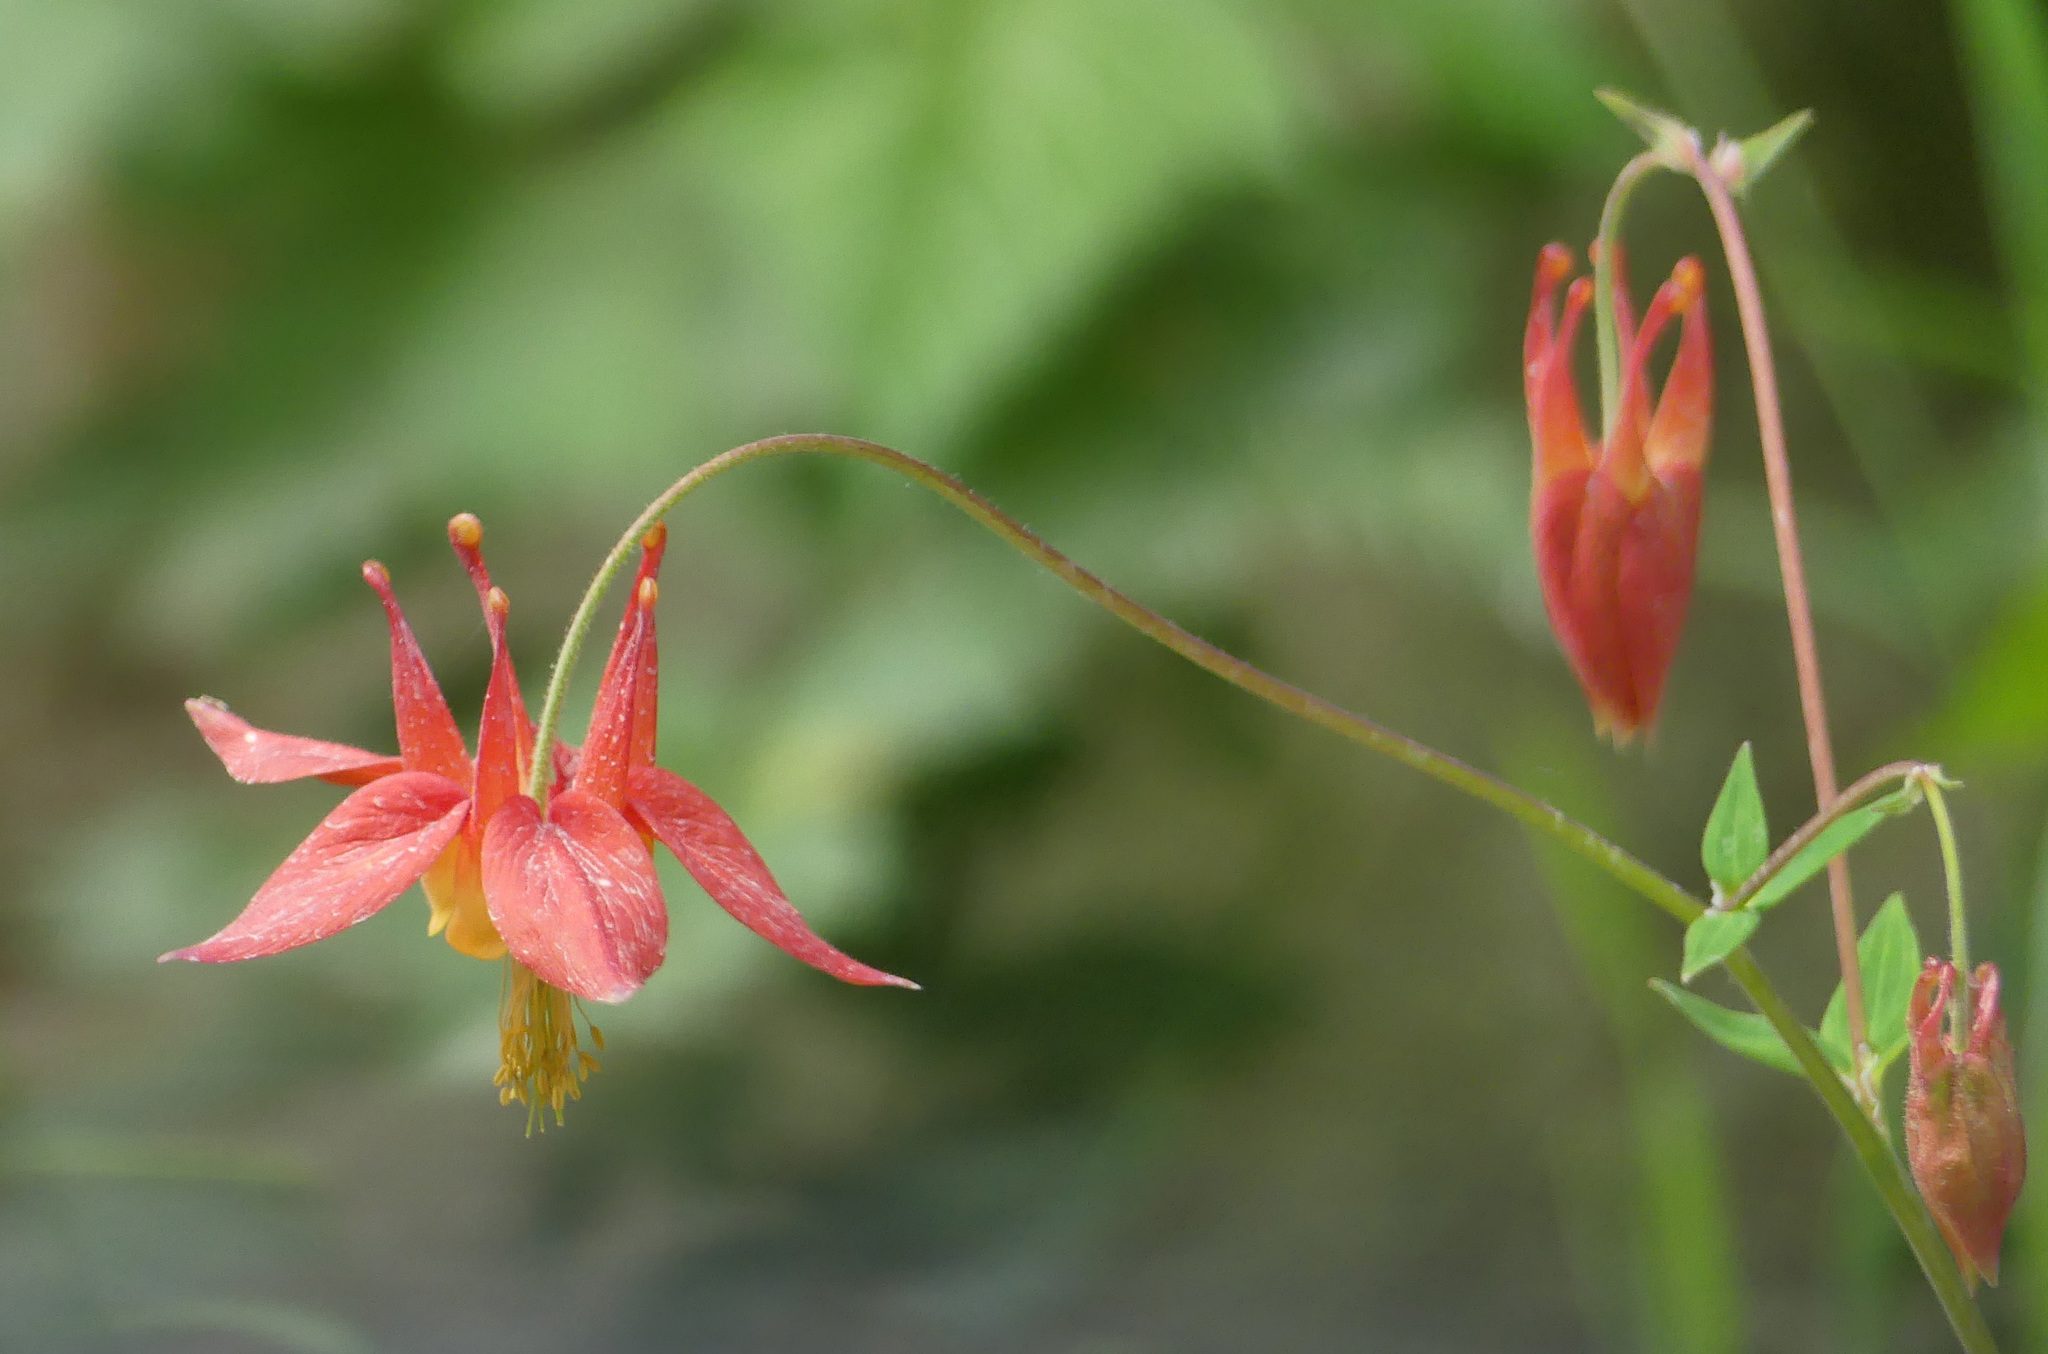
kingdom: Plantae
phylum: Tracheophyta
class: Magnoliopsida
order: Ranunculales
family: Ranunculaceae
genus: Aquilegia
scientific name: Aquilegia formosa
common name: Sitka columbine
